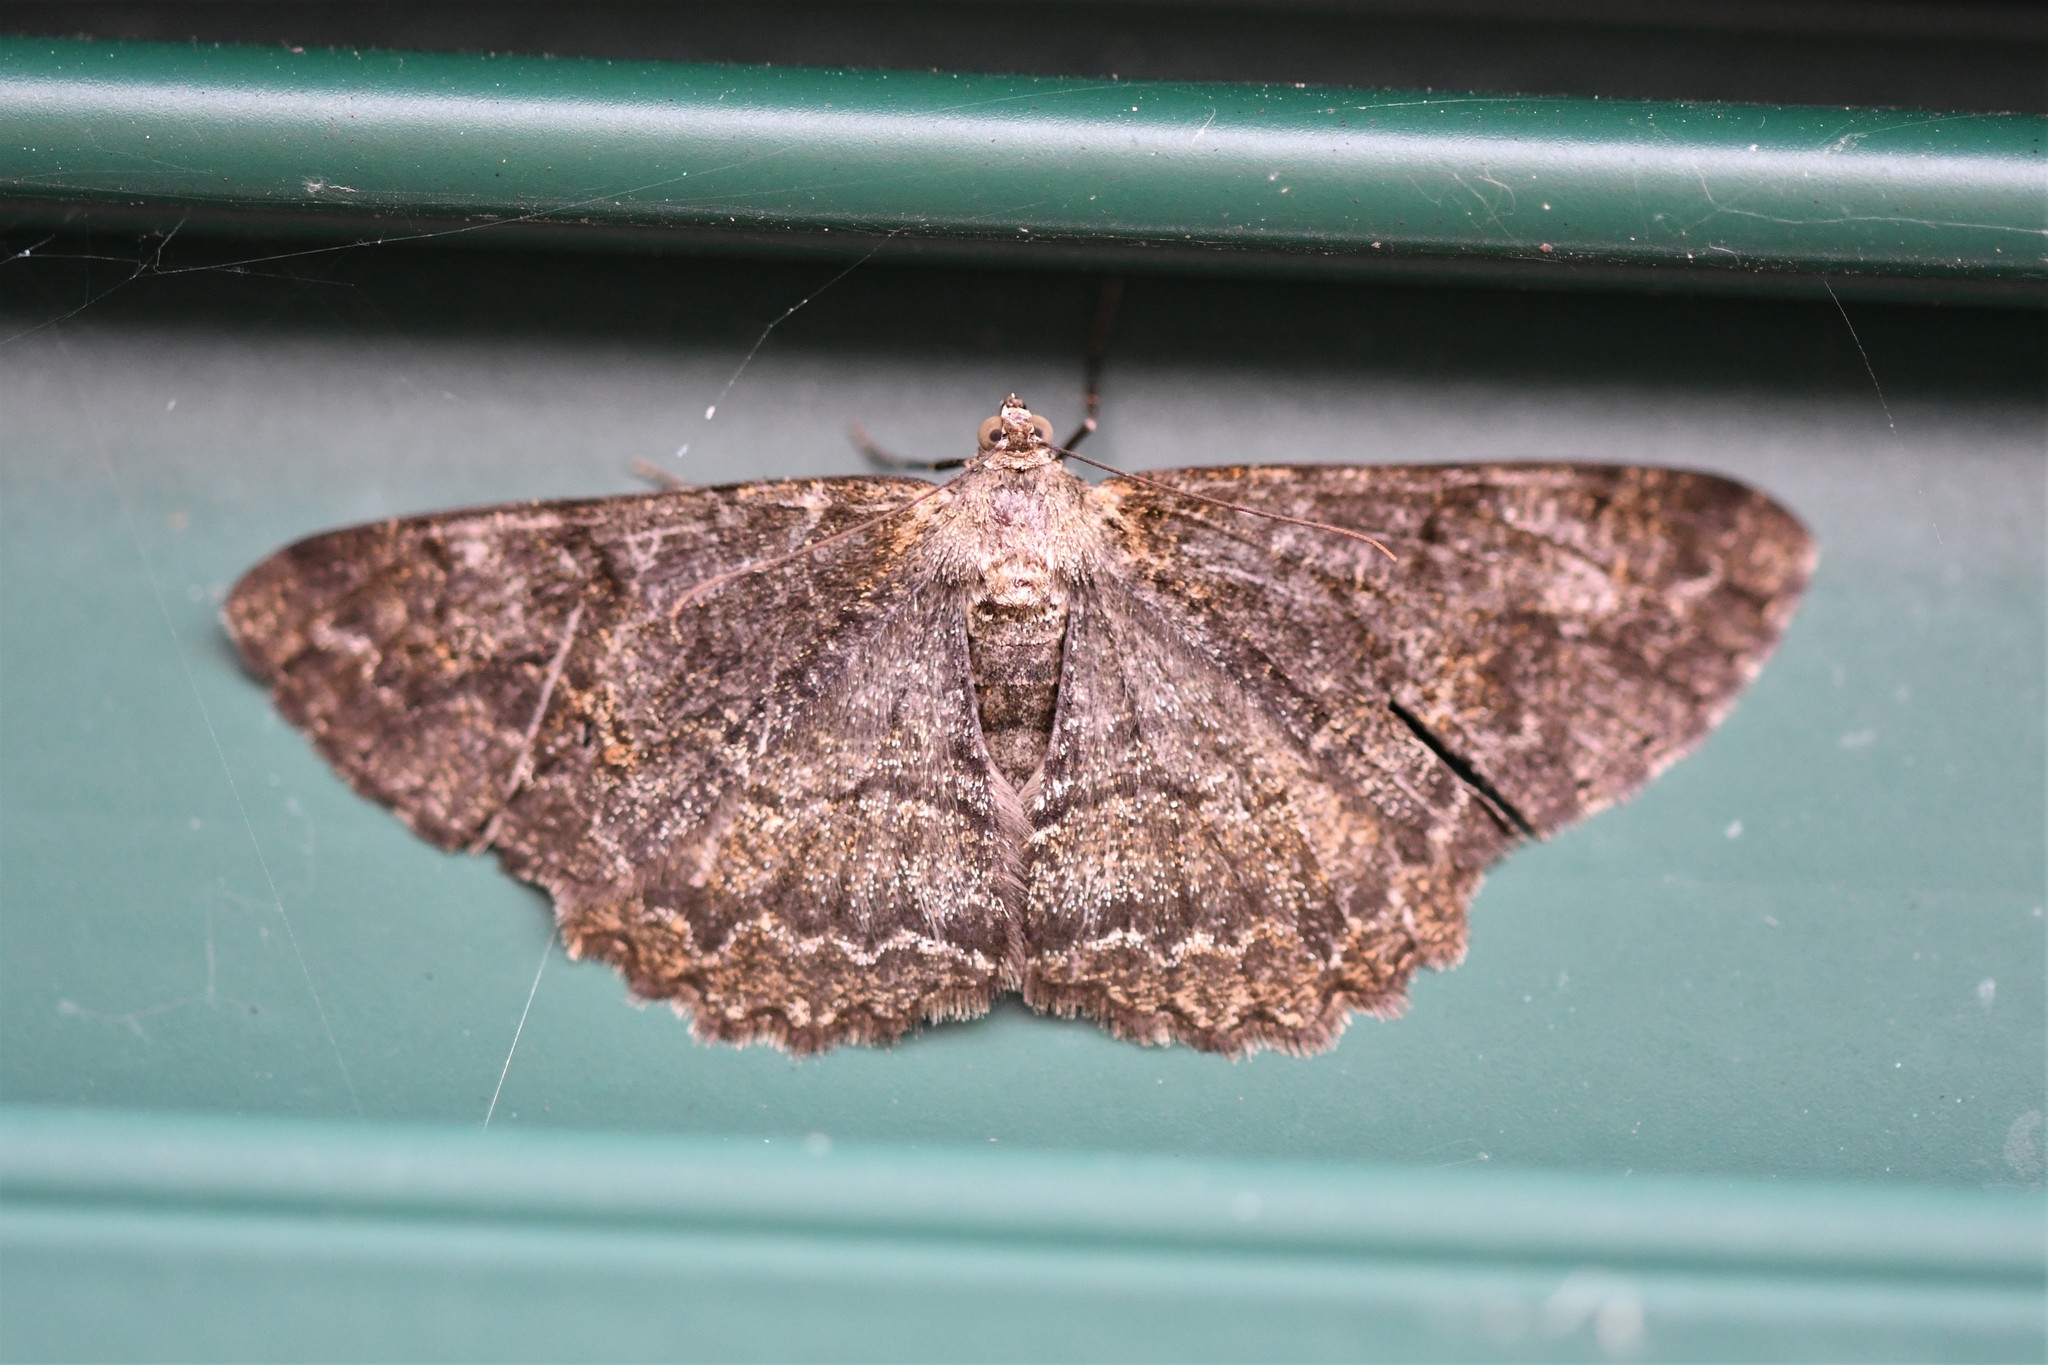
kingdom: Animalia
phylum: Arthropoda
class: Insecta
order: Lepidoptera
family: Geometridae
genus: Alcis
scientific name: Alcis repandata
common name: Mottled beauty
